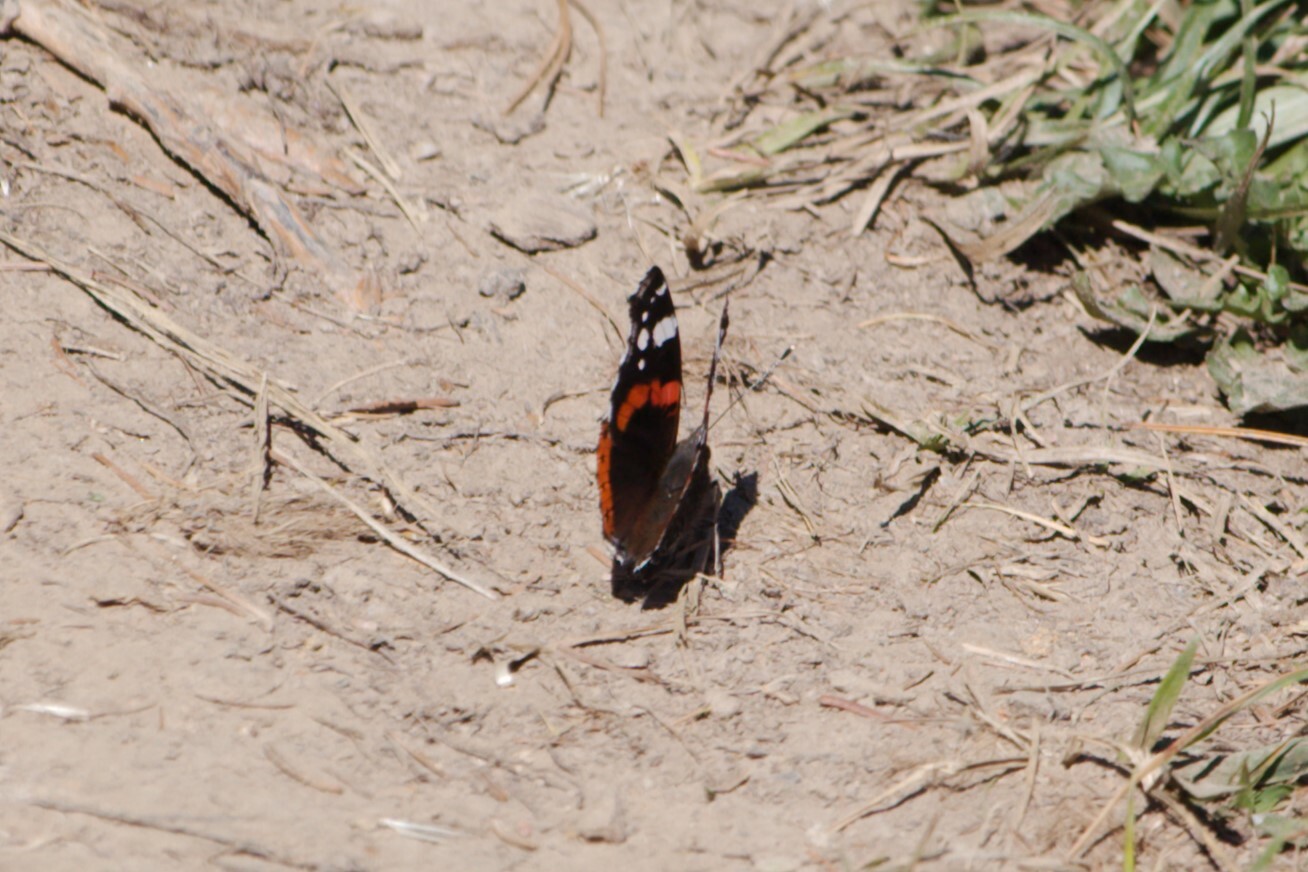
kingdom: Animalia
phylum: Arthropoda
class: Insecta
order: Lepidoptera
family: Nymphalidae
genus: Vanessa
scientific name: Vanessa atalanta
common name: Red admiral
